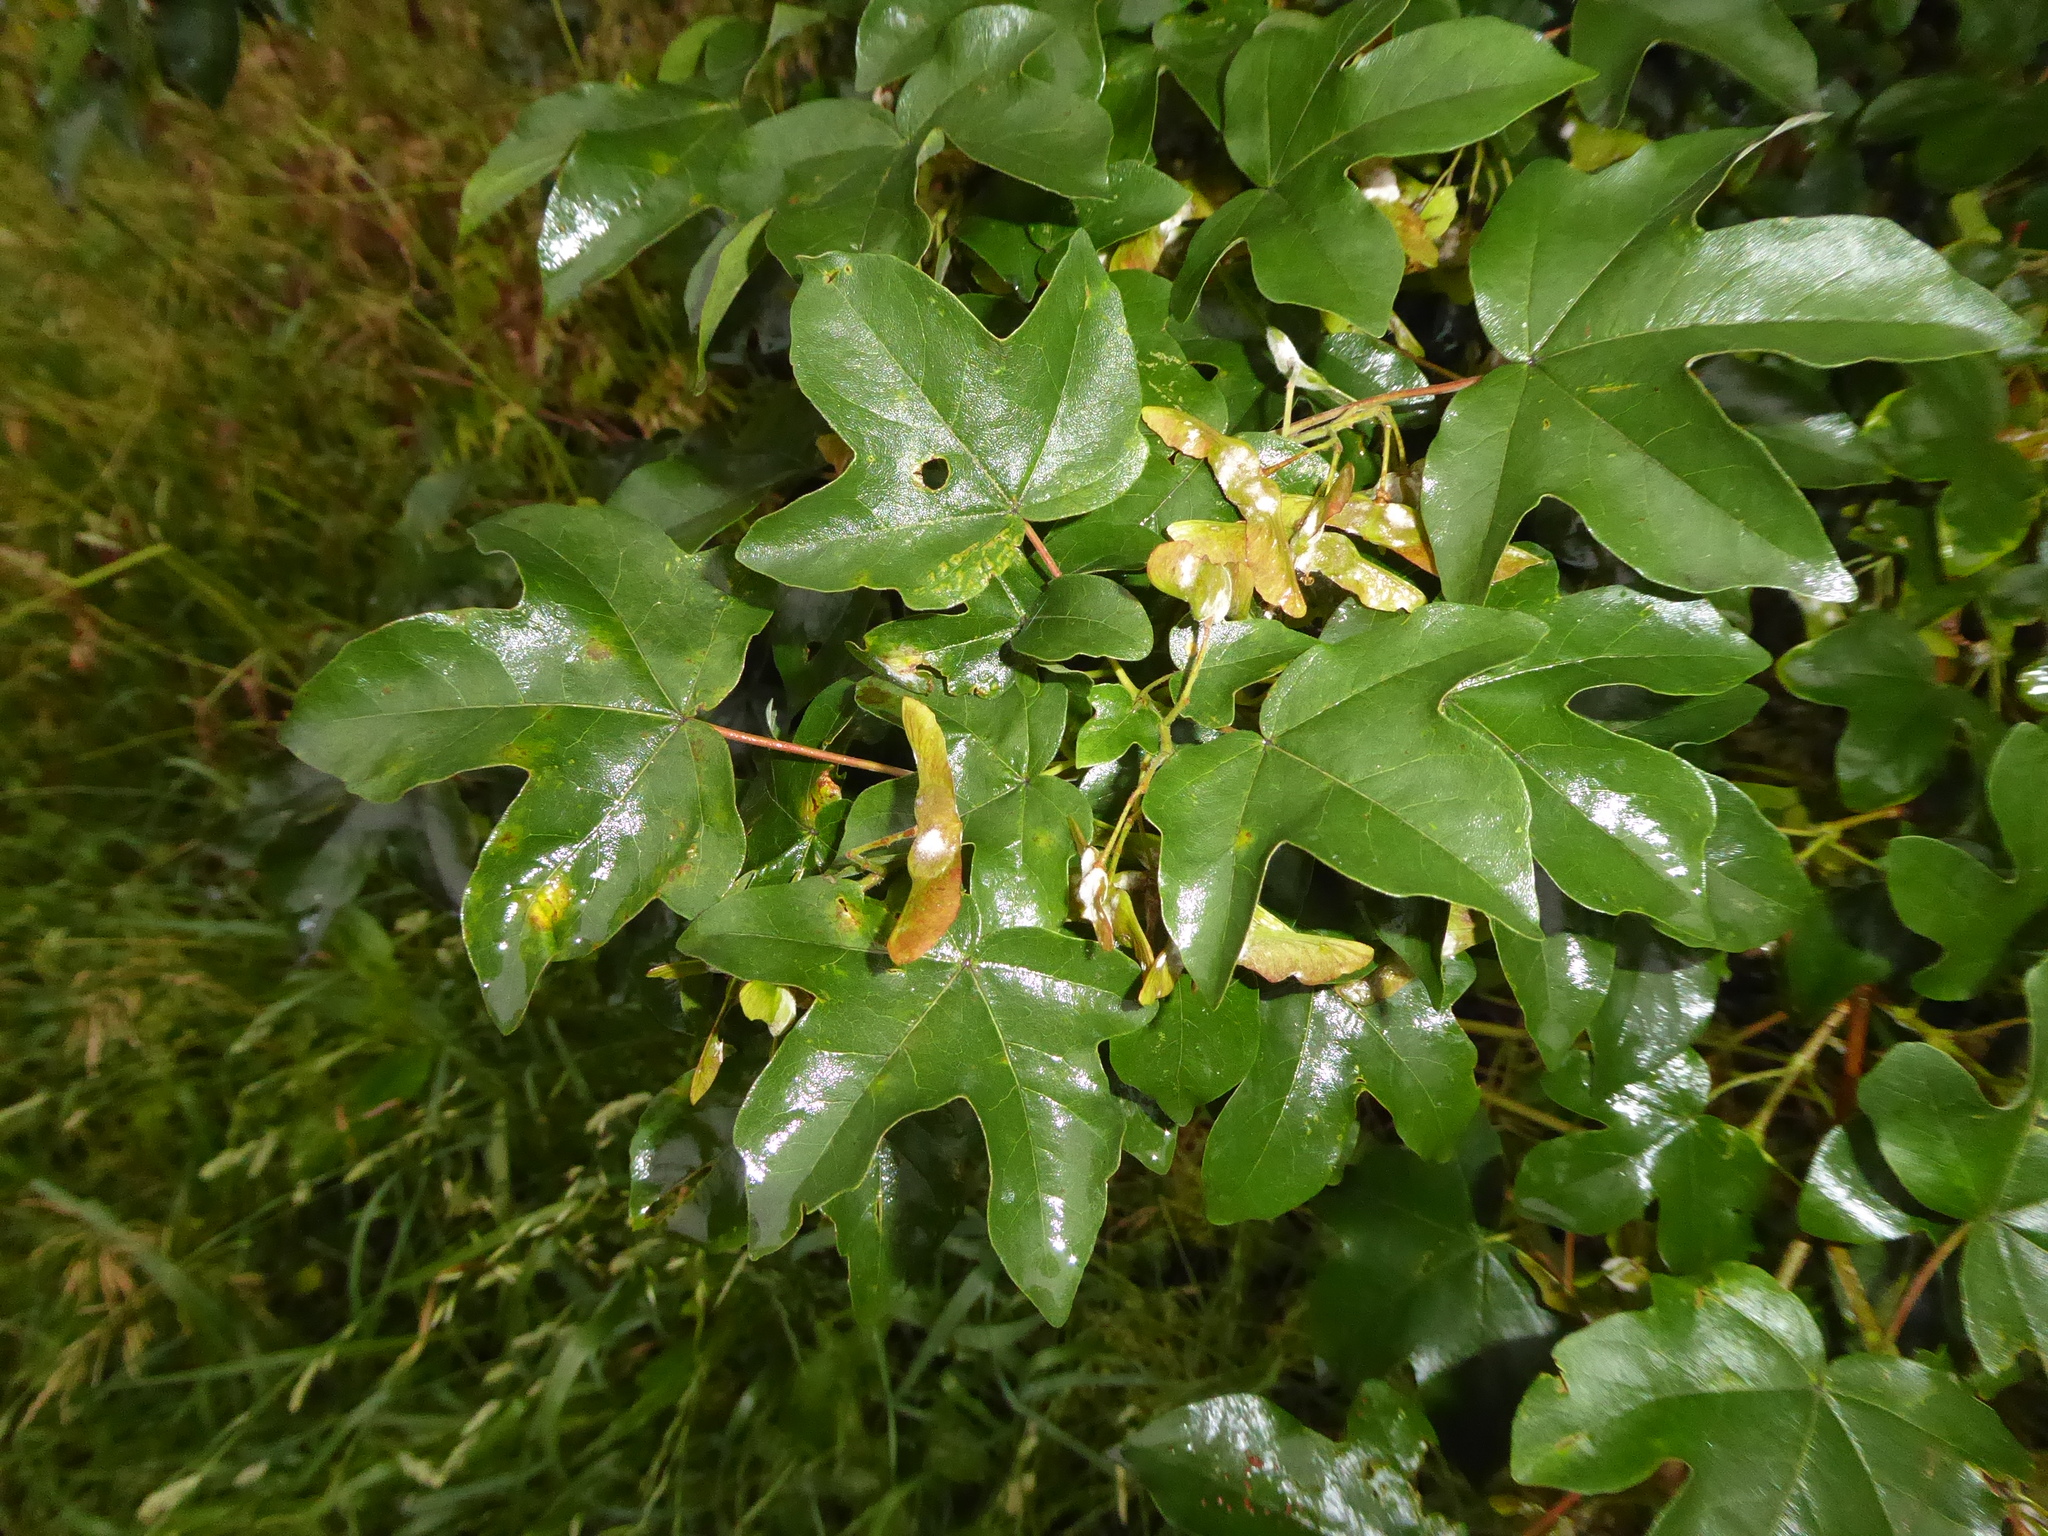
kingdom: Plantae
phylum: Tracheophyta
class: Magnoliopsida
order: Sapindales
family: Sapindaceae
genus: Acer
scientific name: Acer campestre
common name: Field maple
